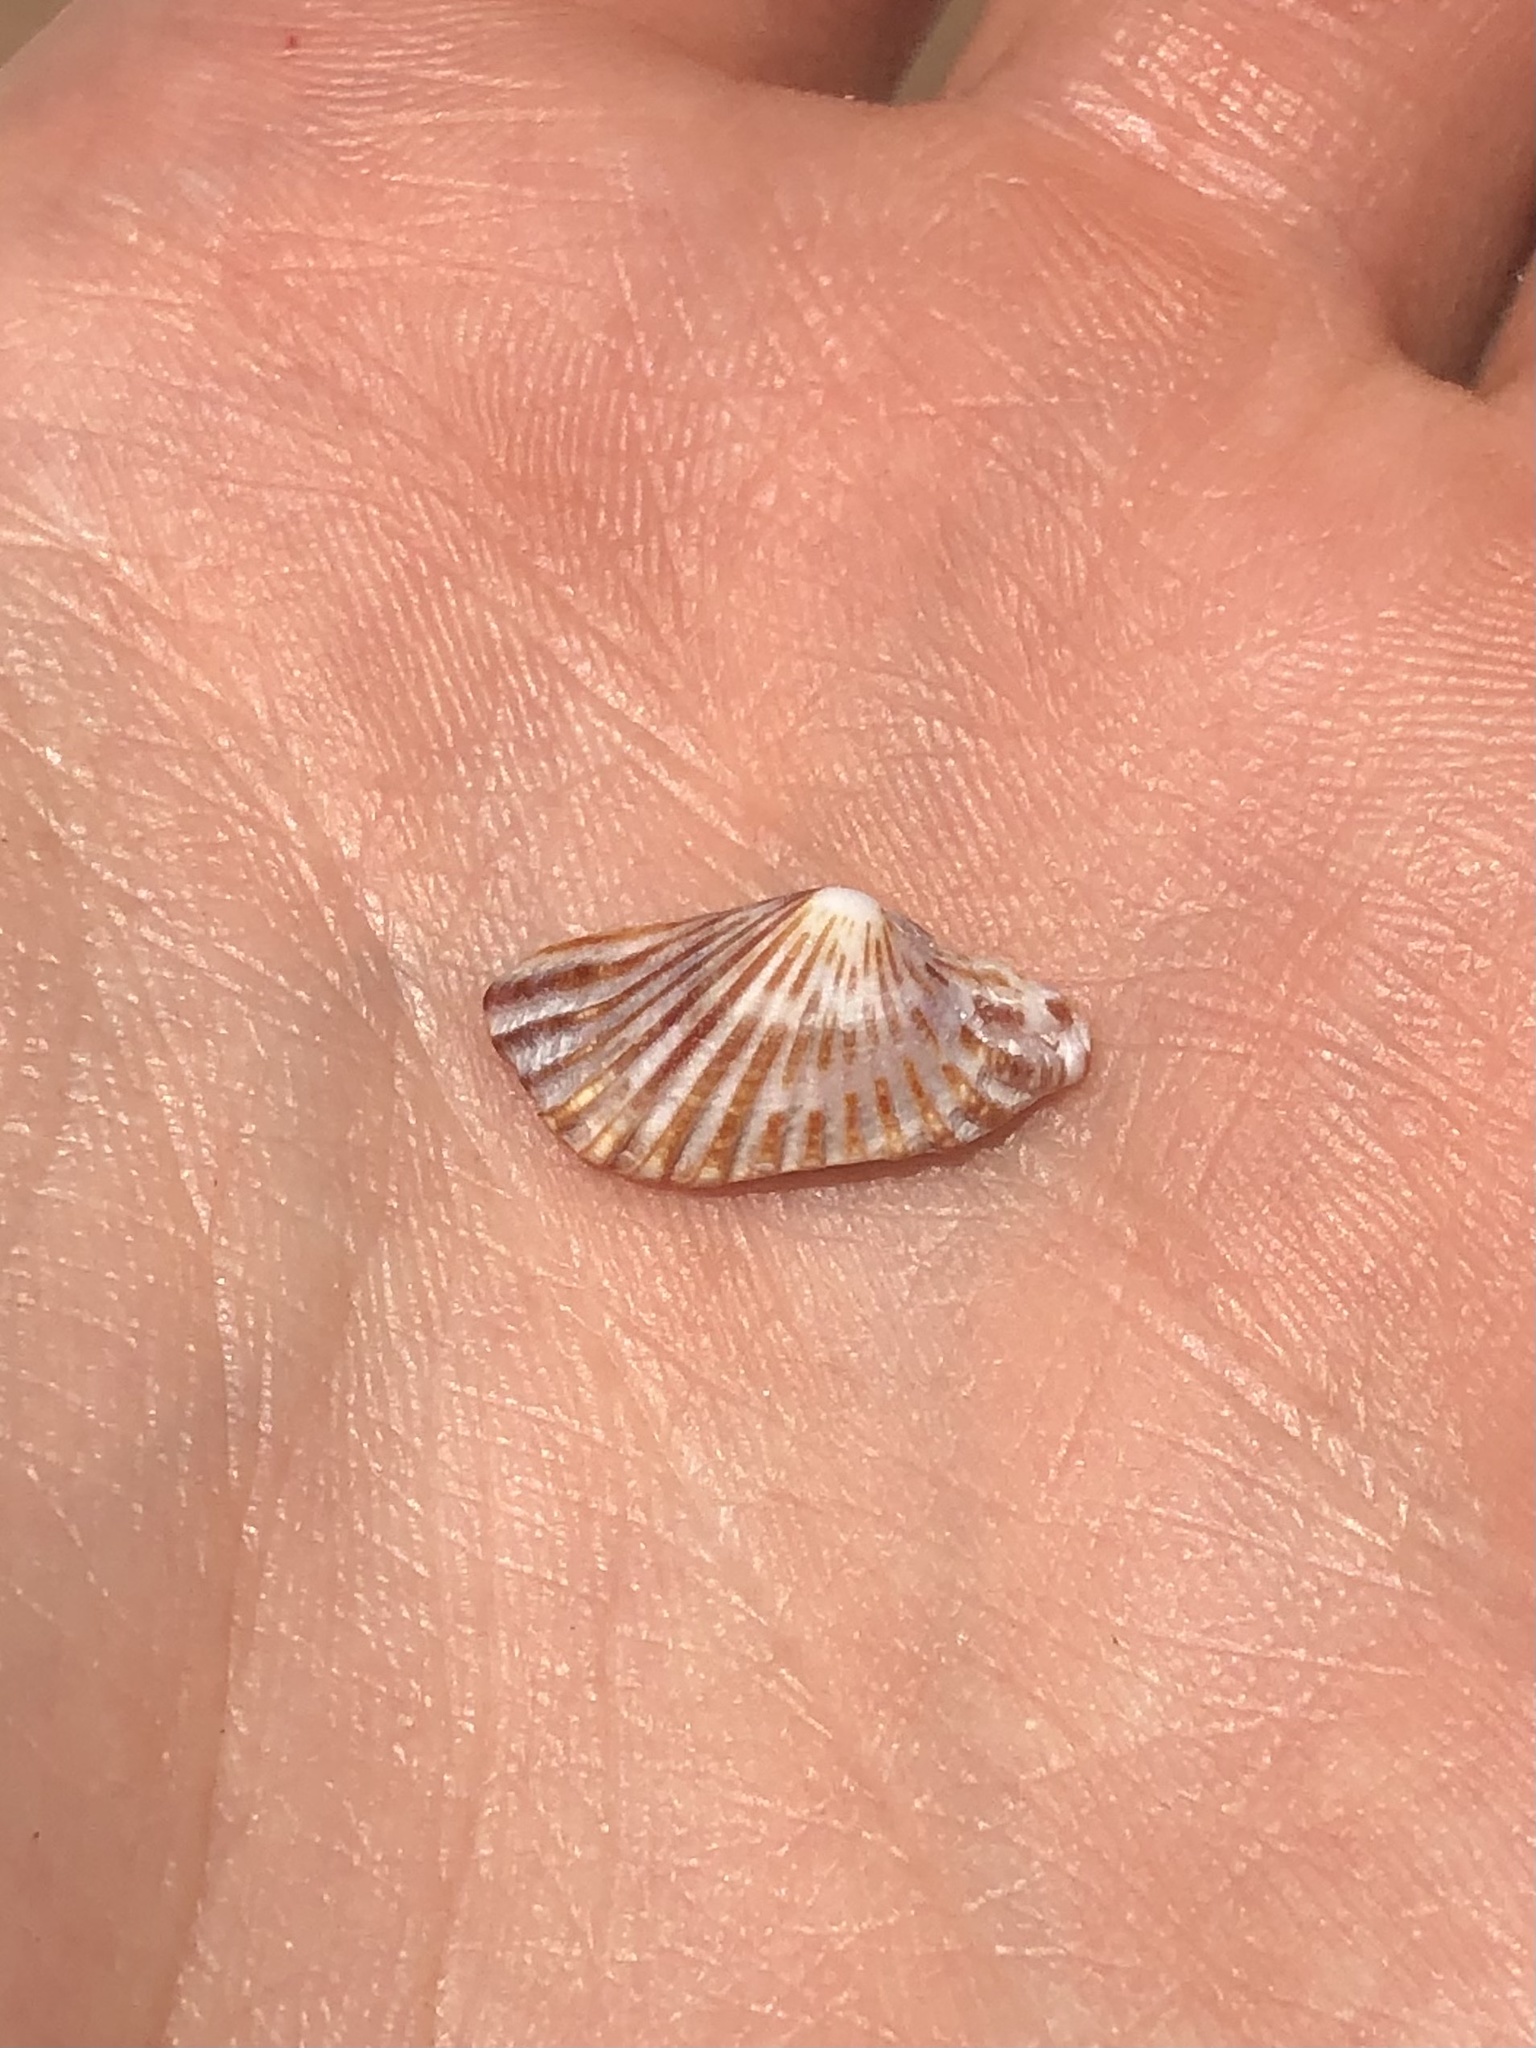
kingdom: Animalia
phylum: Mollusca
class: Bivalvia
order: Carditida
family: Carditidae
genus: Cardites
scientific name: Cardites floridanus
